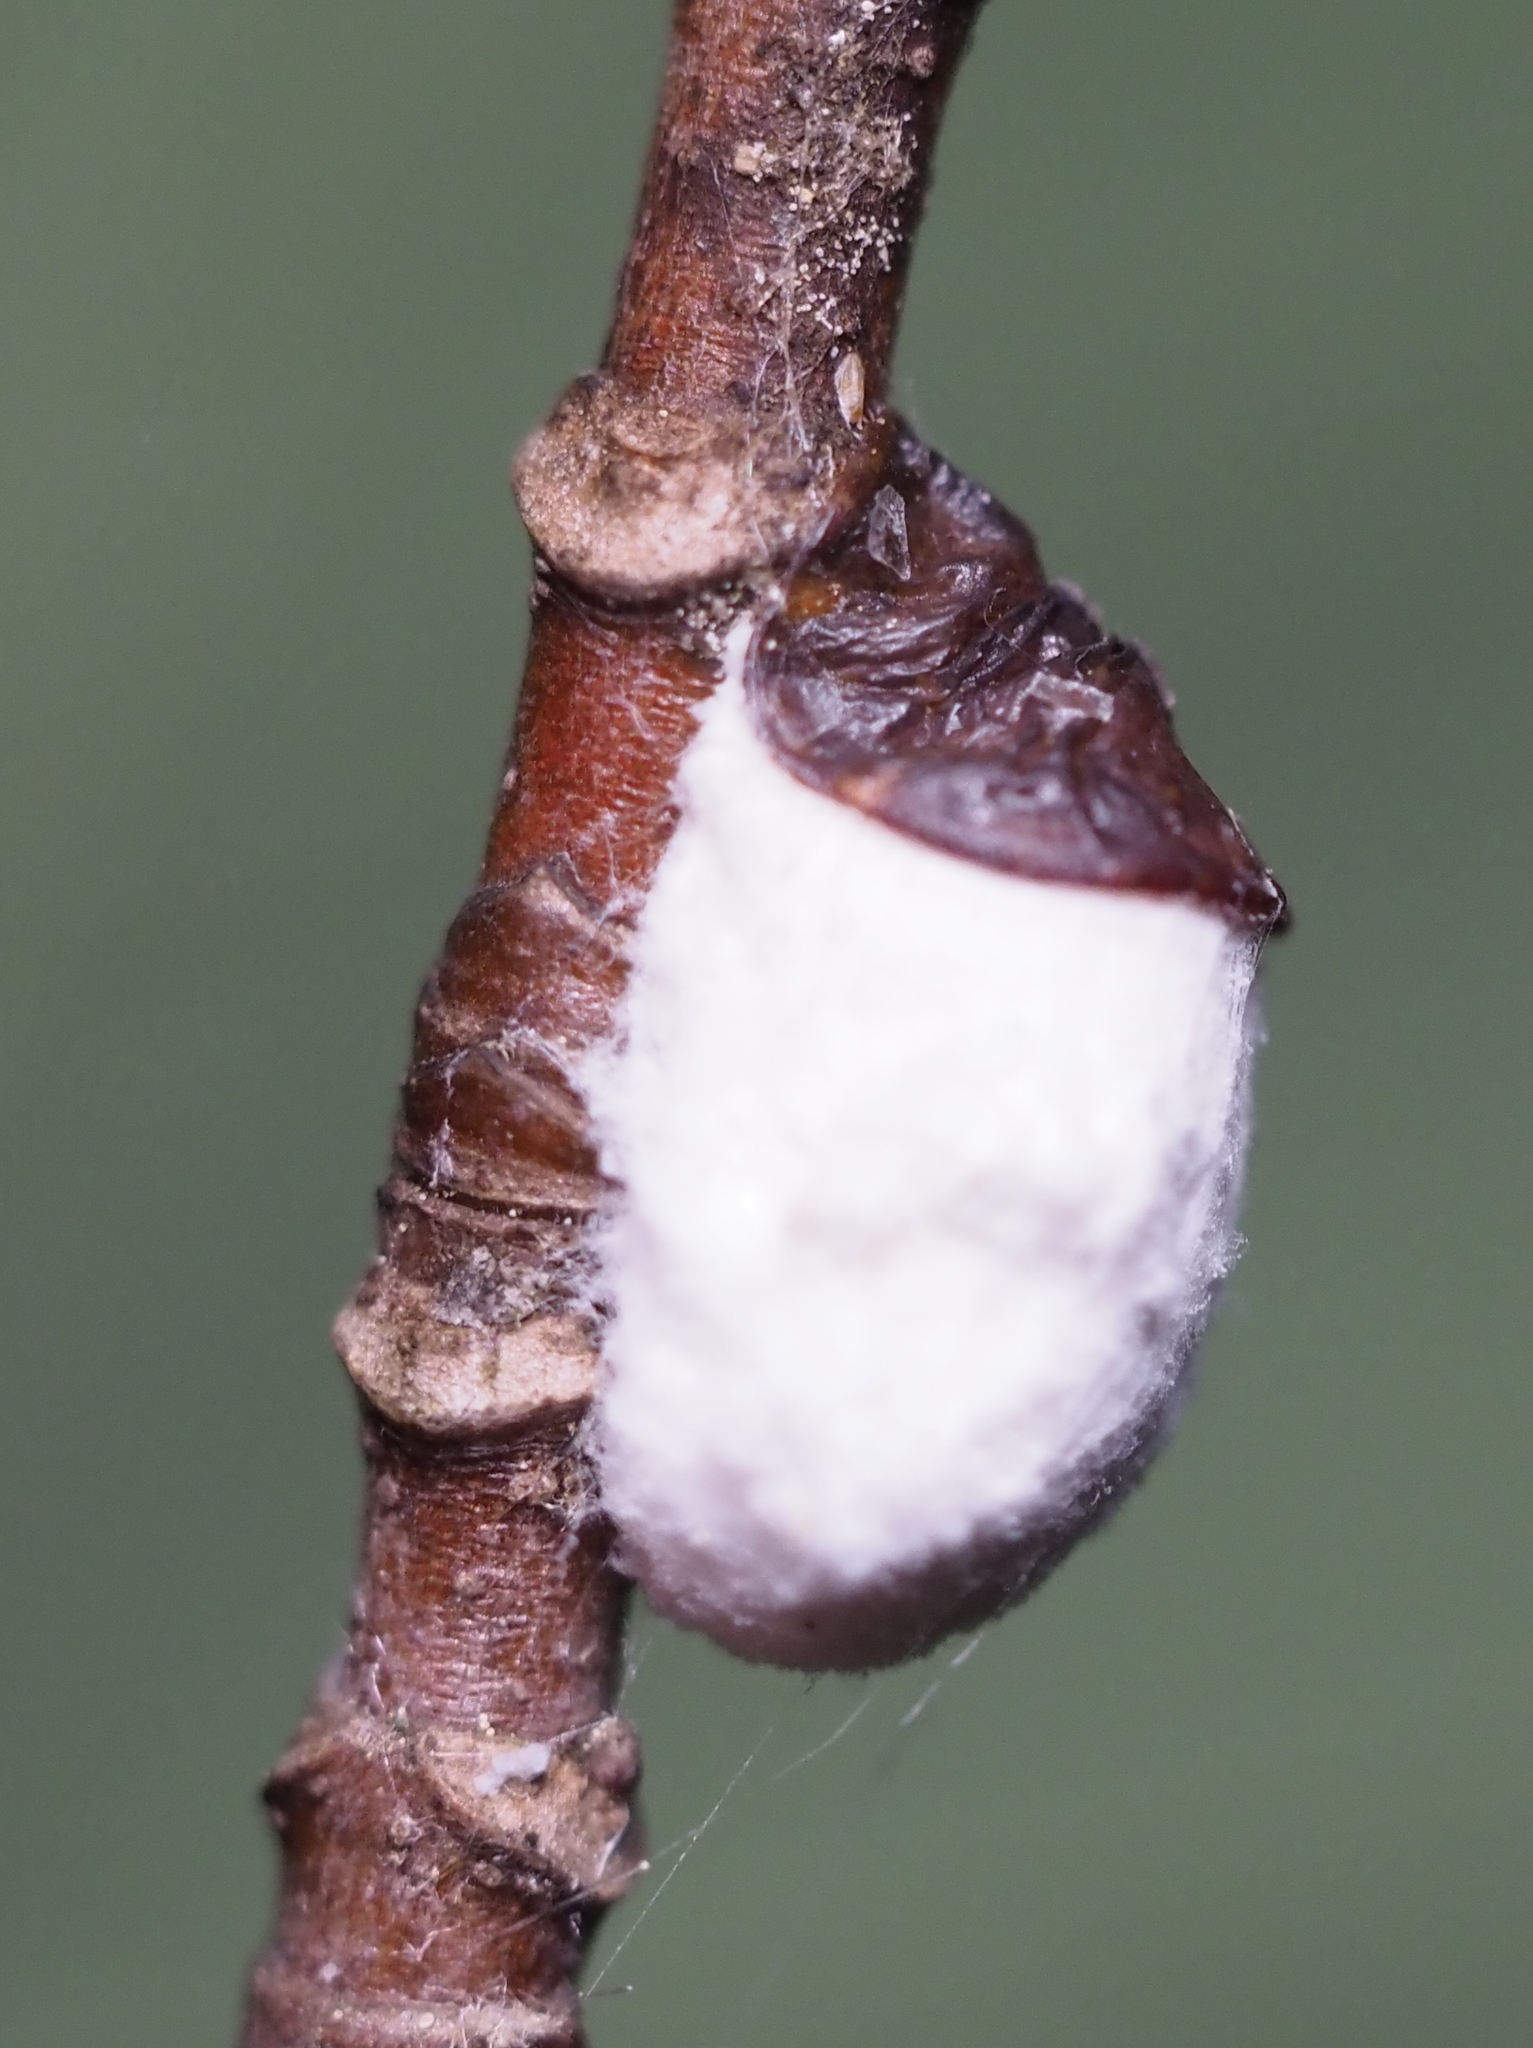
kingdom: Animalia
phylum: Arthropoda
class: Insecta
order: Hemiptera
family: Coccidae
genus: Pulvinaria
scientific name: Pulvinaria
